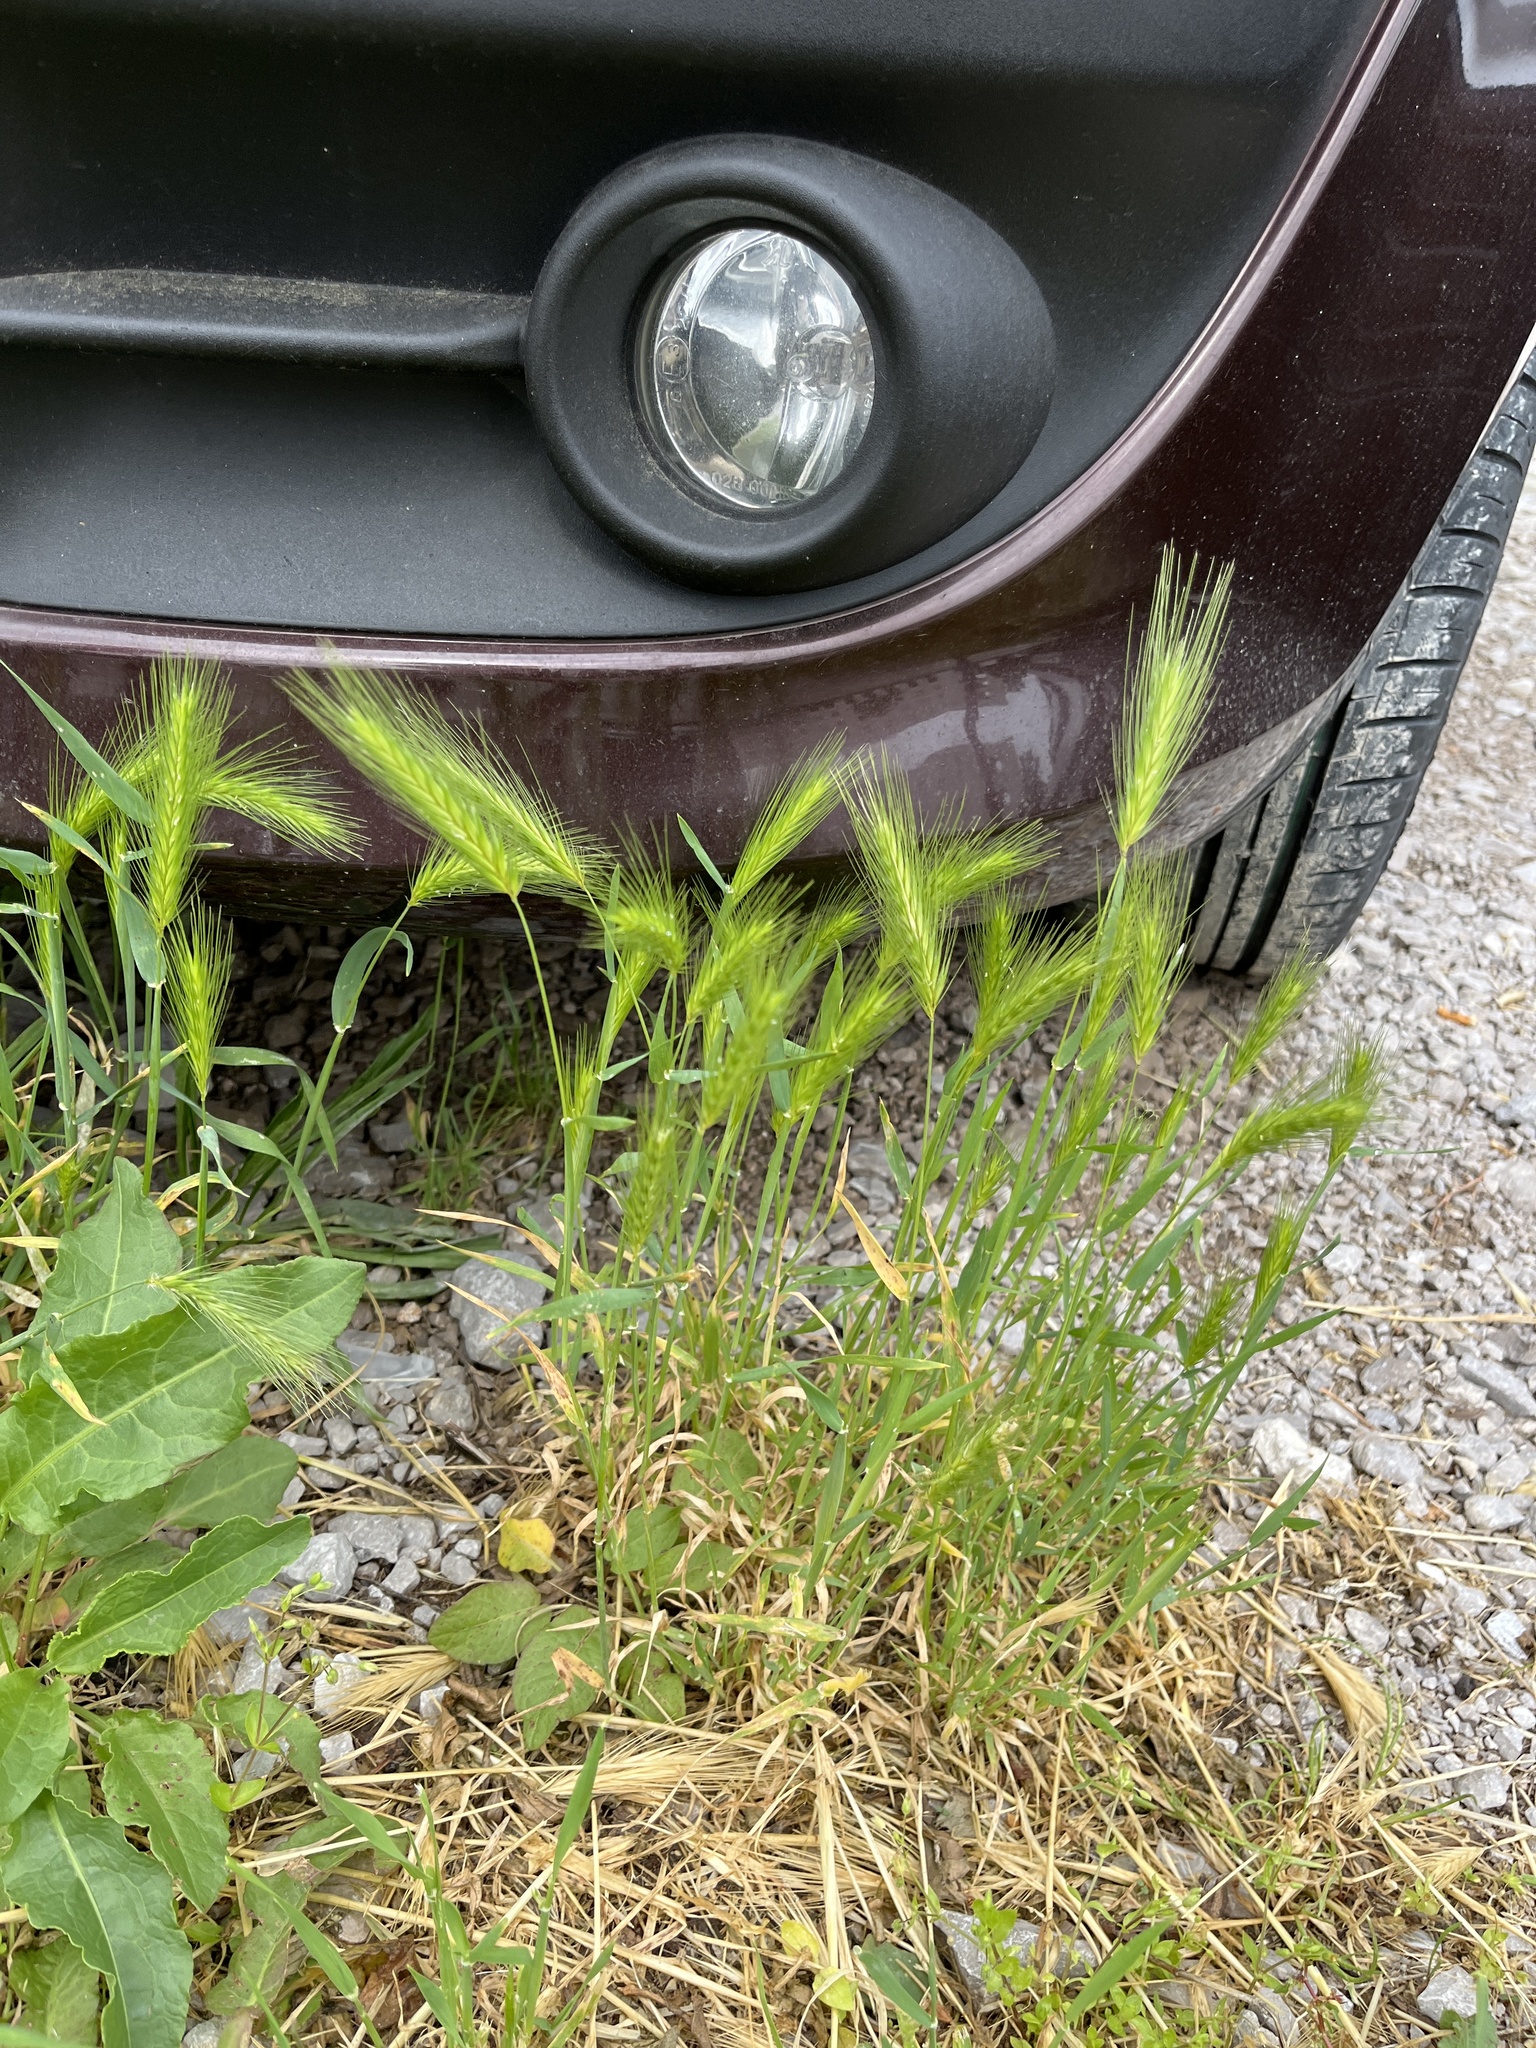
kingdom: Plantae
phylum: Tracheophyta
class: Liliopsida
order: Poales
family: Poaceae
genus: Hordeum
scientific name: Hordeum murinum
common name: Wall barley
